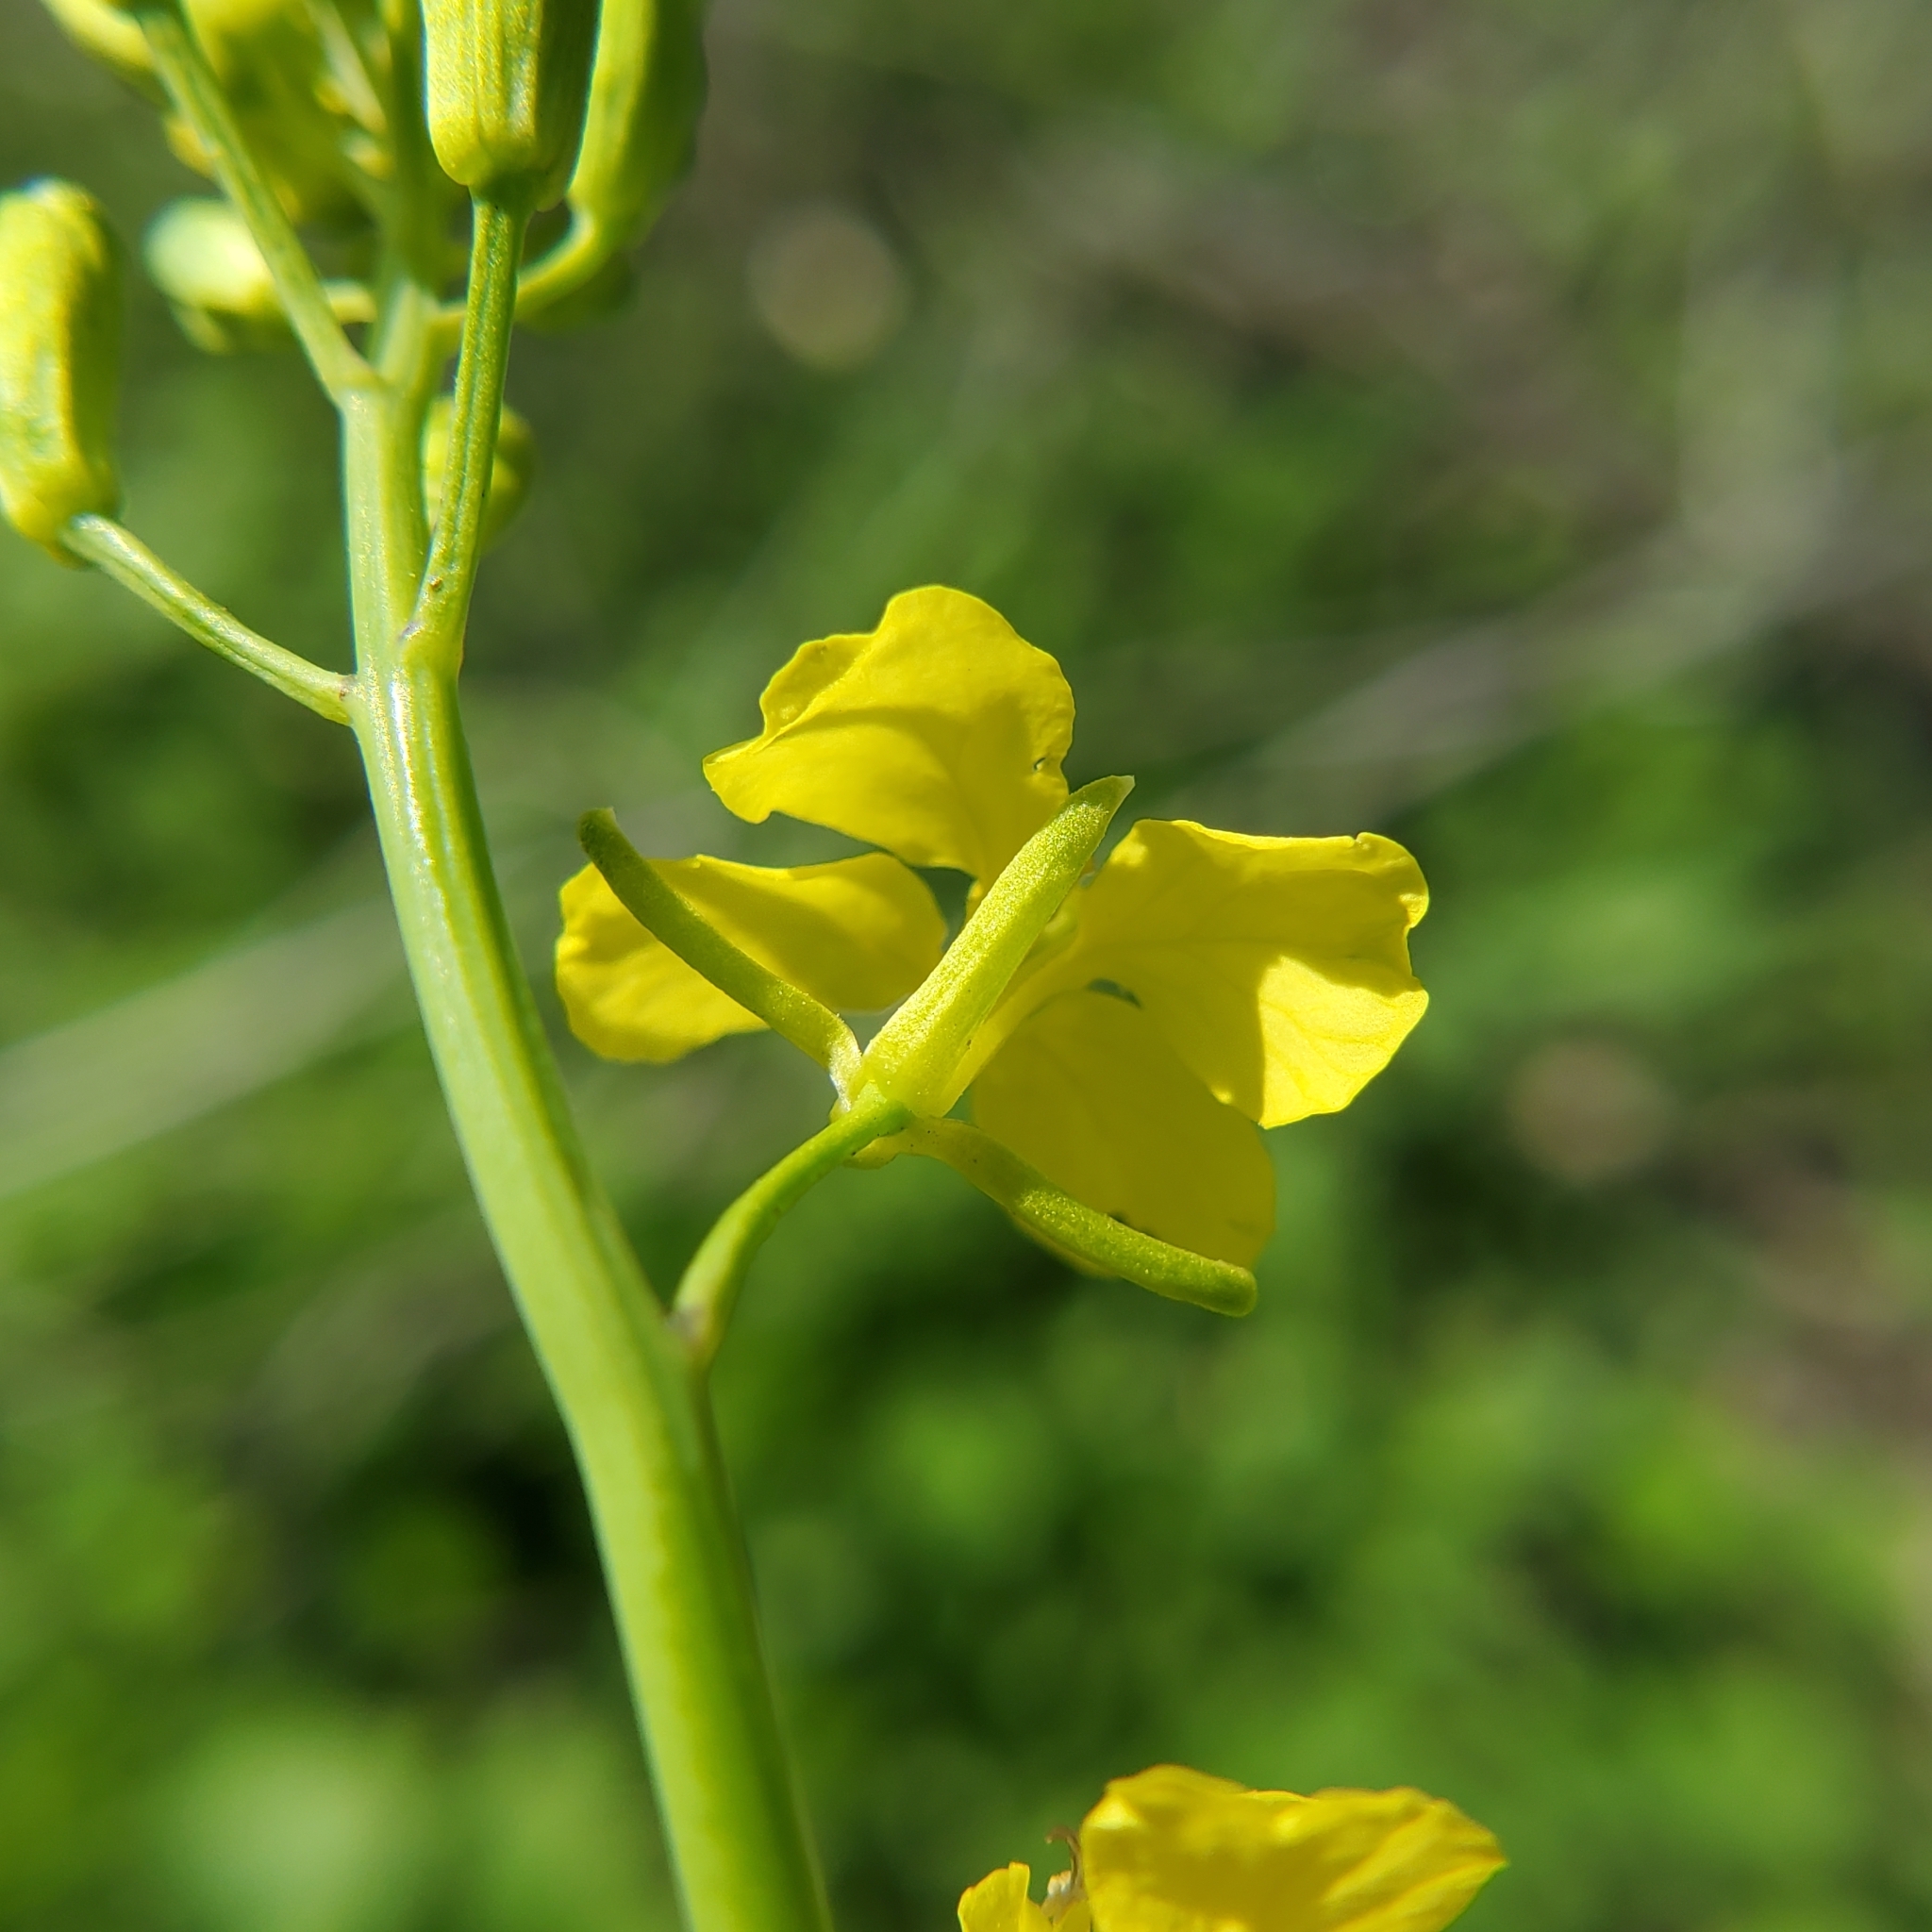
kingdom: Plantae
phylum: Tracheophyta
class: Magnoliopsida
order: Brassicales
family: Brassicaceae
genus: Brassica
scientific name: Brassica nigra
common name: Black mustard
